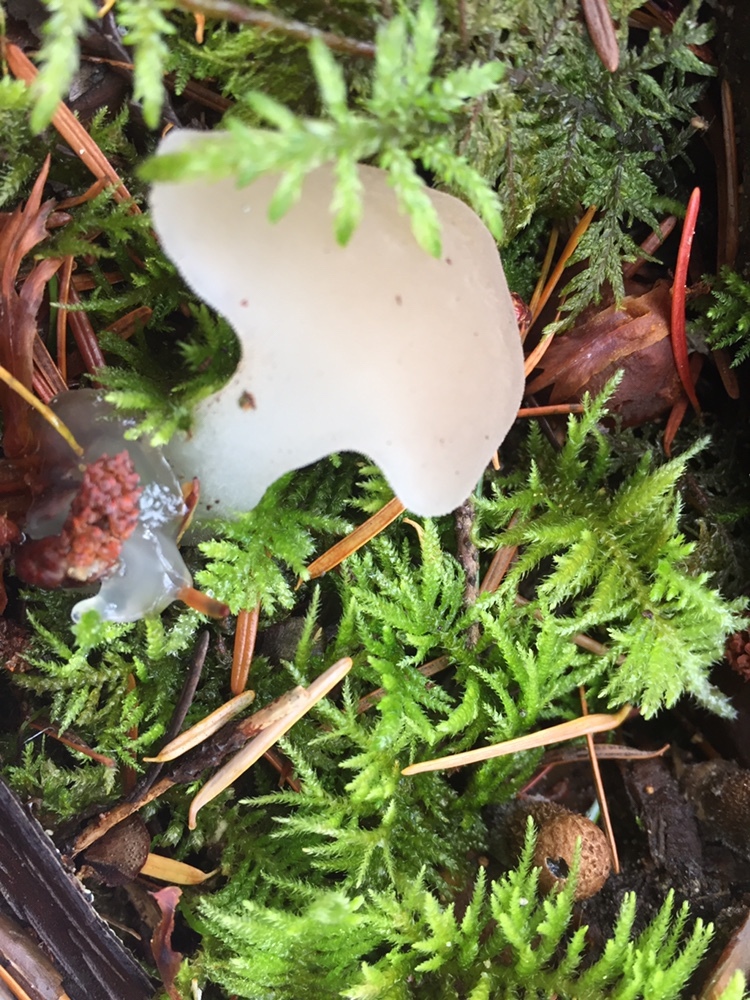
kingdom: Fungi
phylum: Basidiomycota
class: Agaricomycetes
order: Auriculariales
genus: Pseudohydnum
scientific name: Pseudohydnum gelatinosum
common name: Jelly tongue
